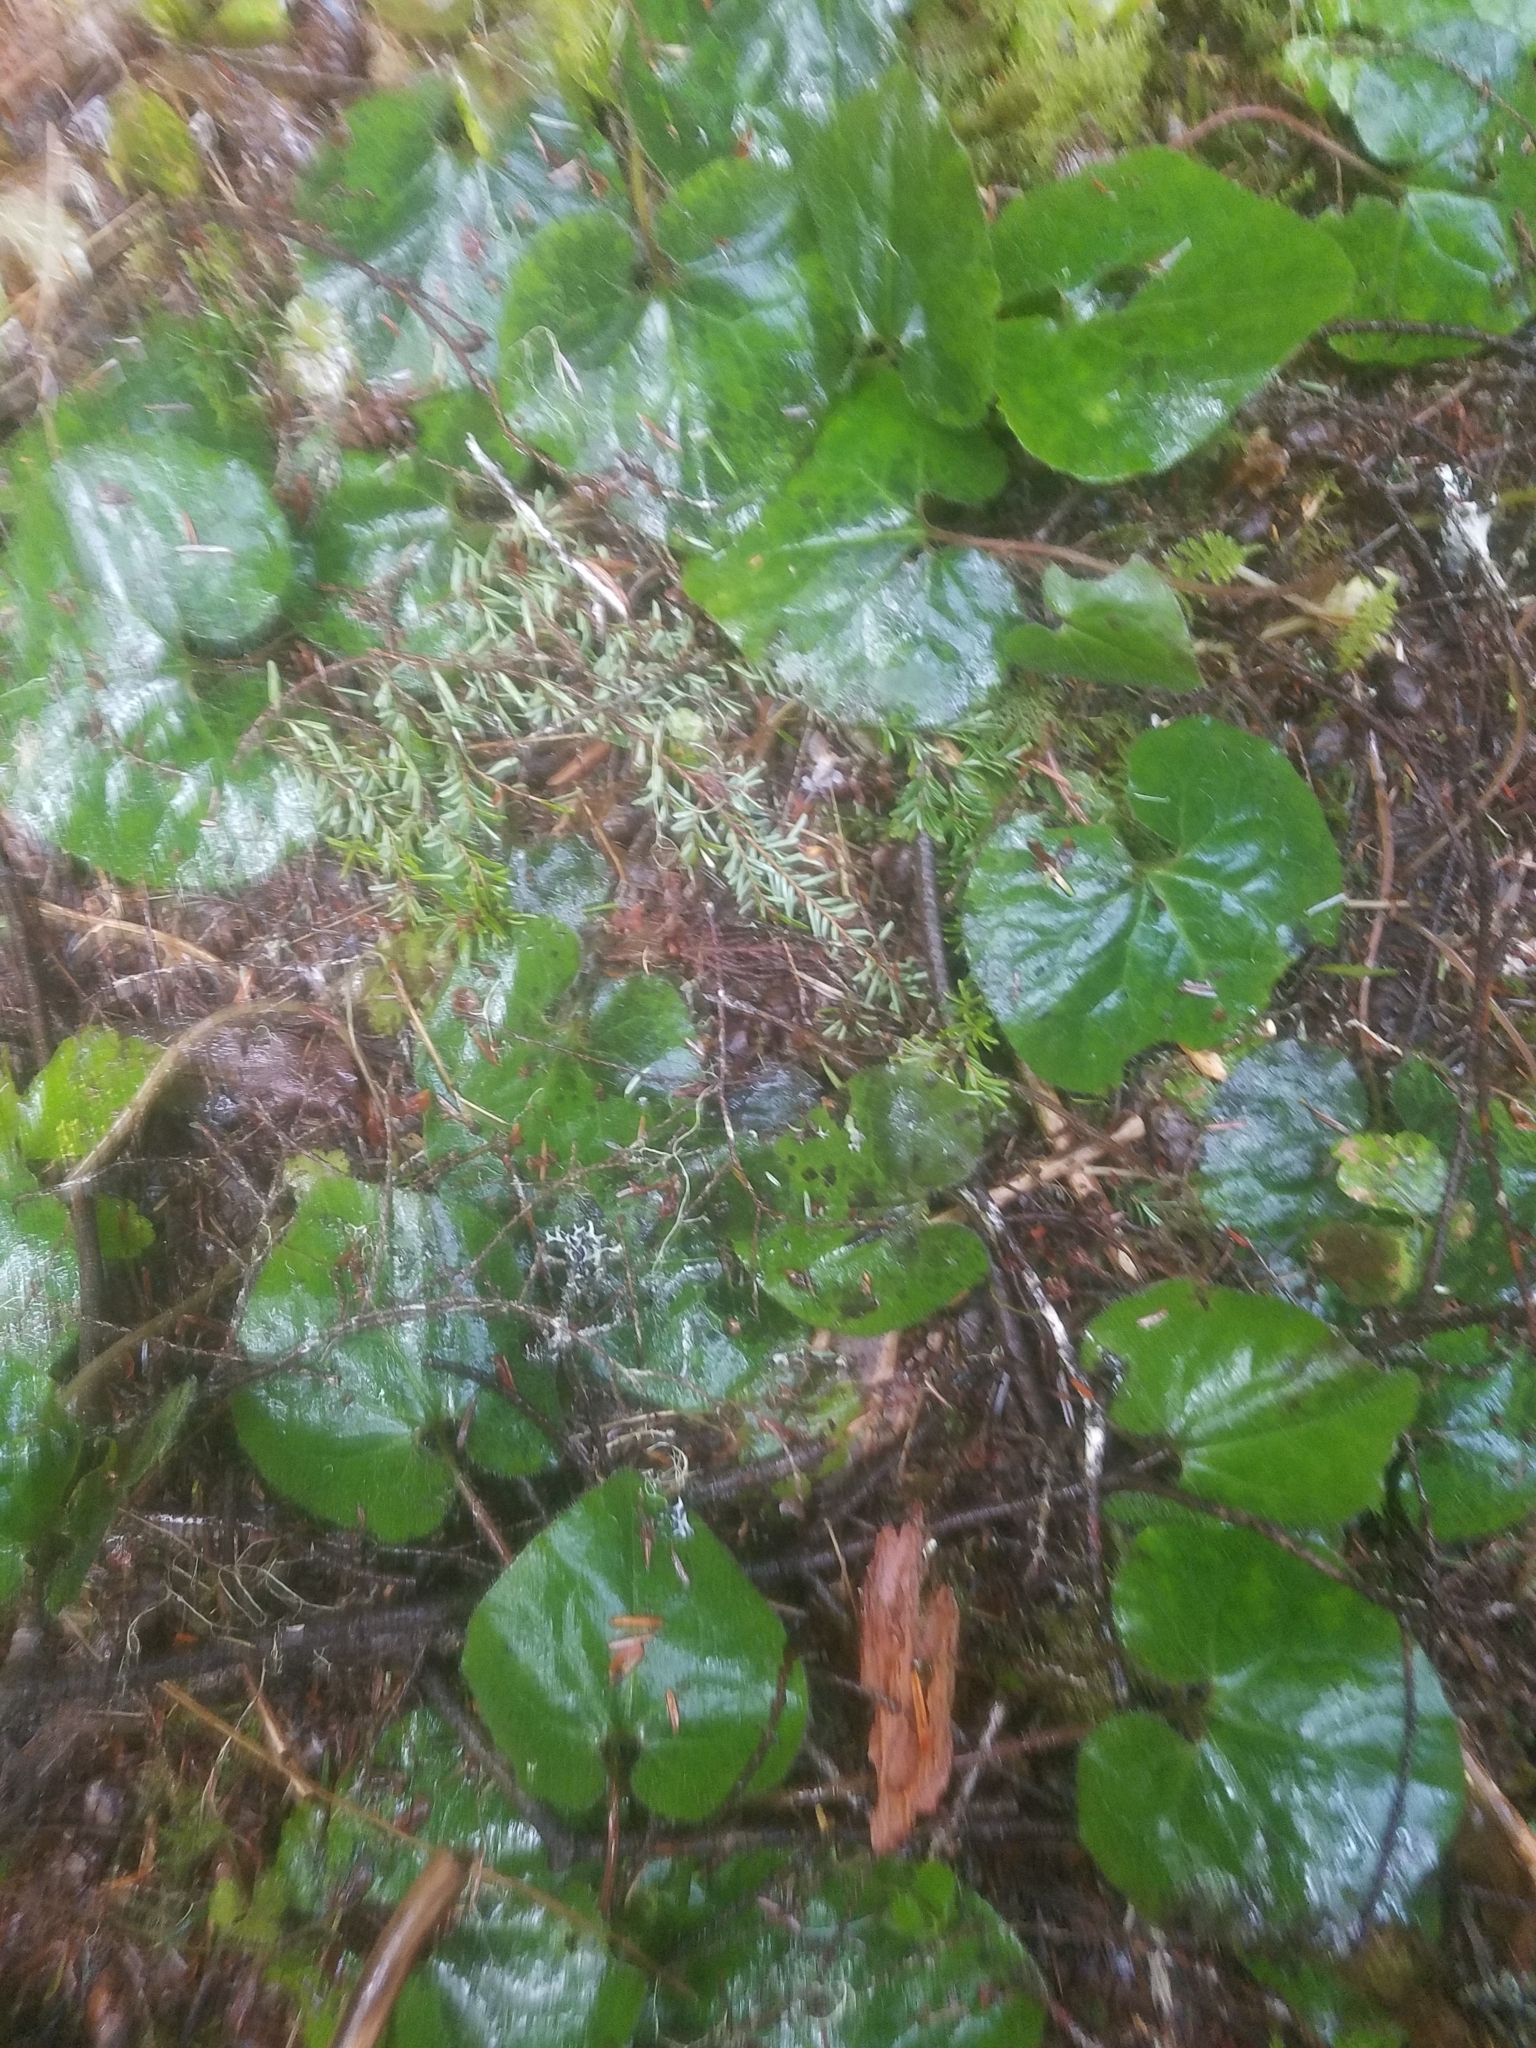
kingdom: Plantae
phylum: Tracheophyta
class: Magnoliopsida
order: Piperales
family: Aristolochiaceae
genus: Asarum
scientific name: Asarum caudatum
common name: Wild ginger
